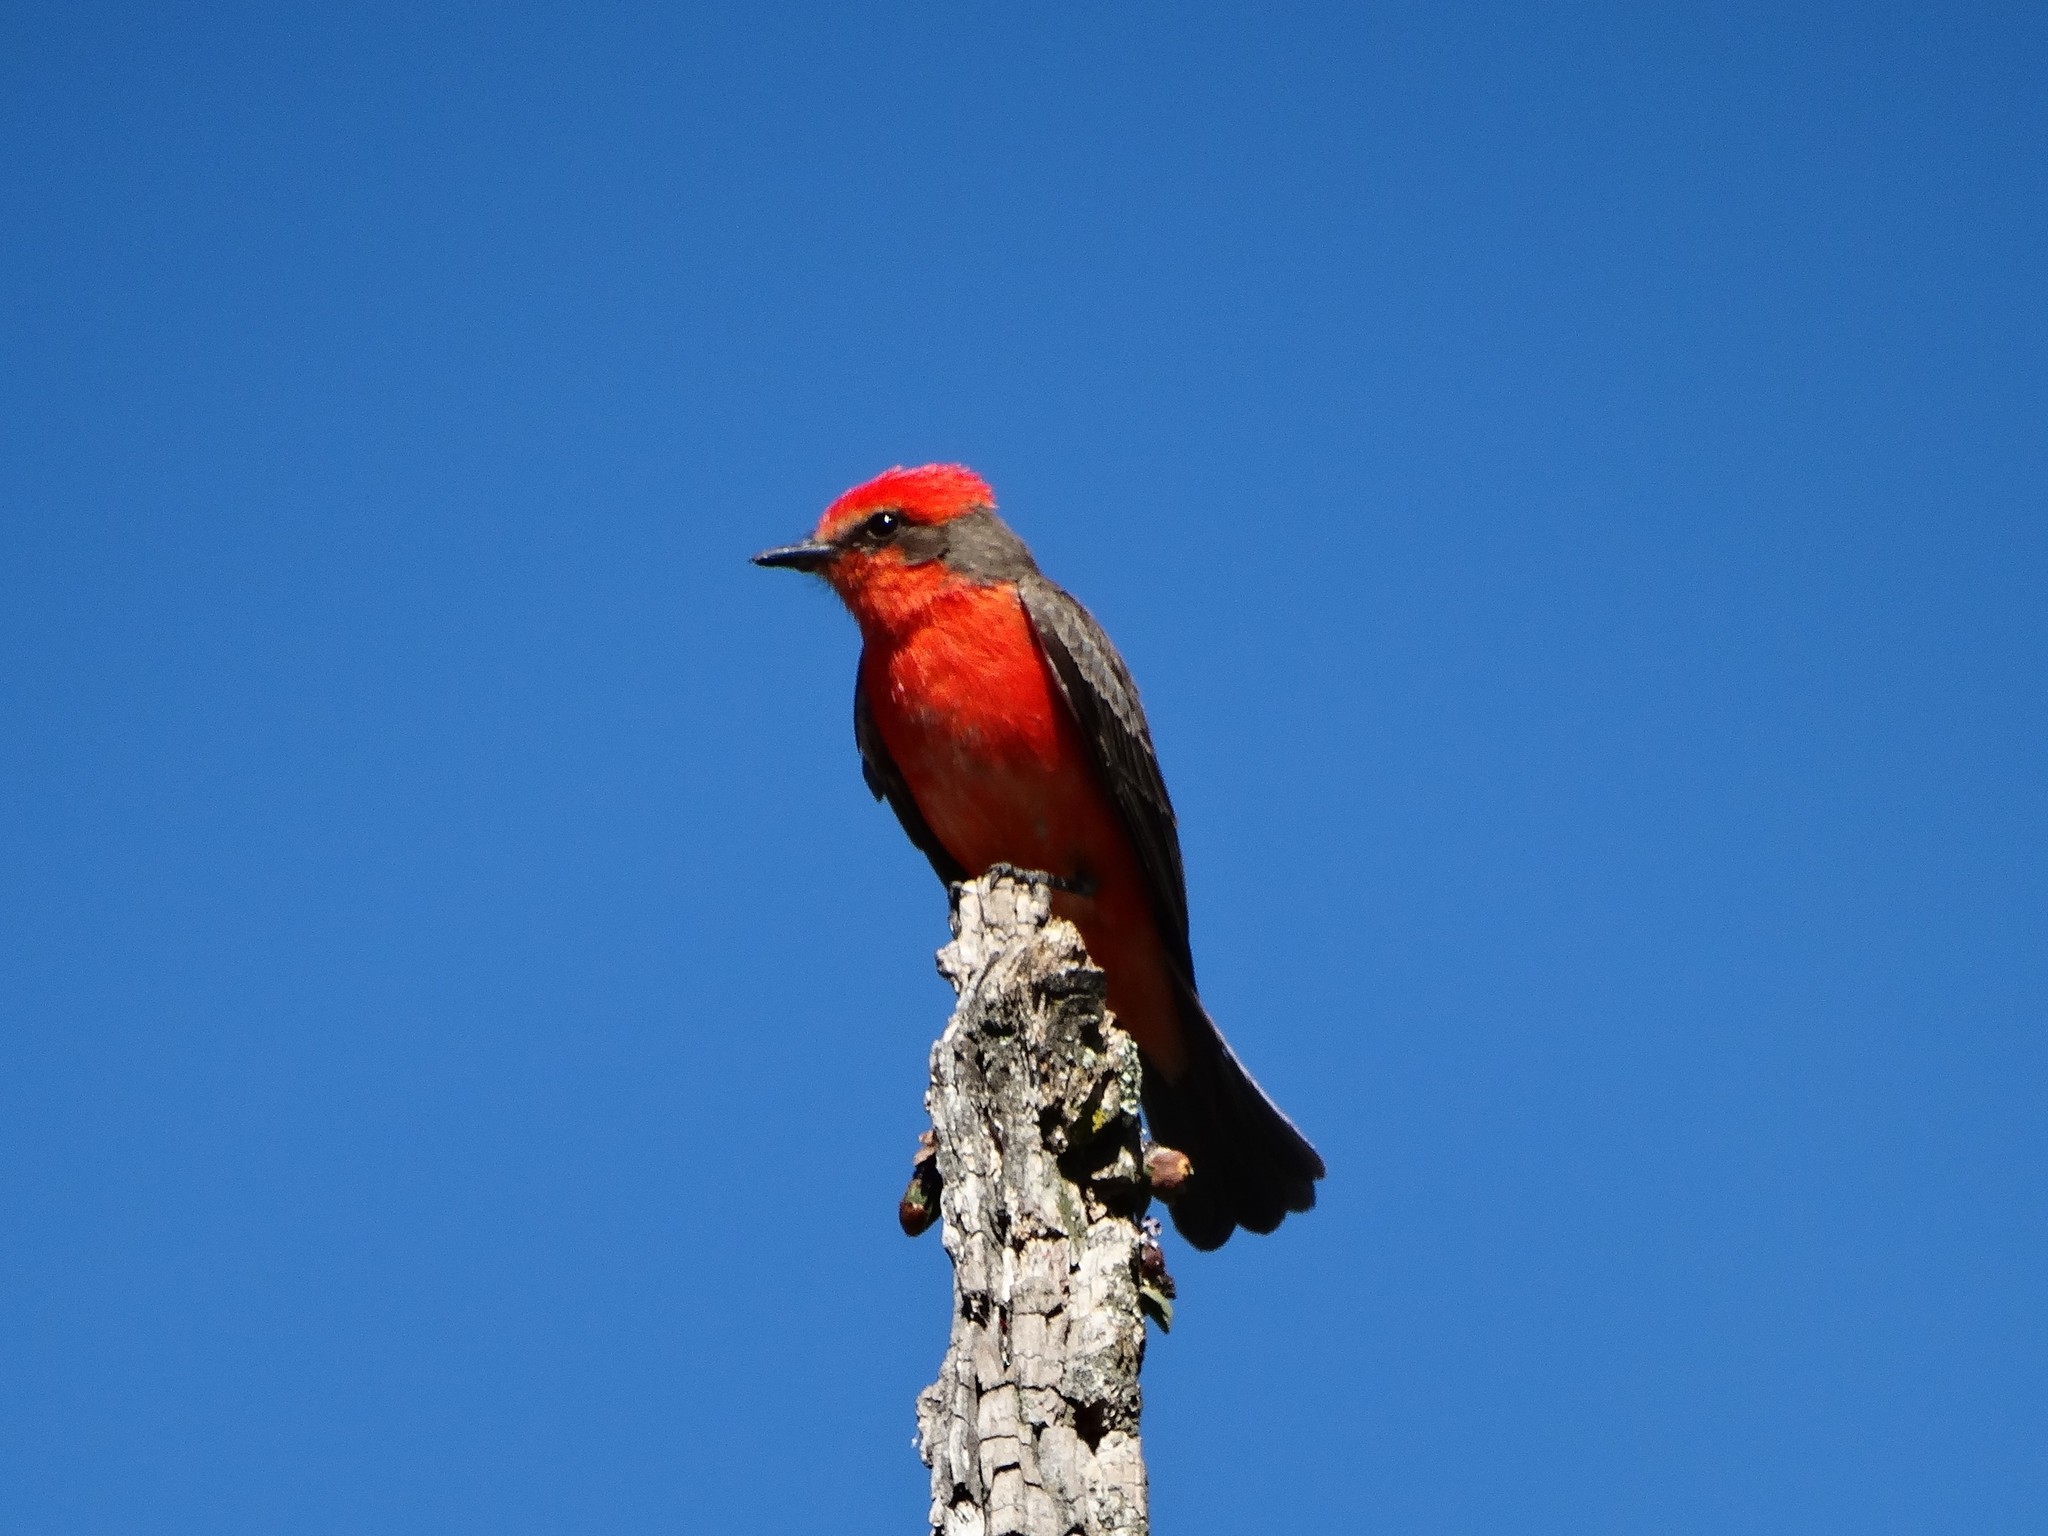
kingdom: Animalia
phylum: Chordata
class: Aves
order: Passeriformes
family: Tyrannidae
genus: Pyrocephalus
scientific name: Pyrocephalus rubinus
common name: Vermilion flycatcher
